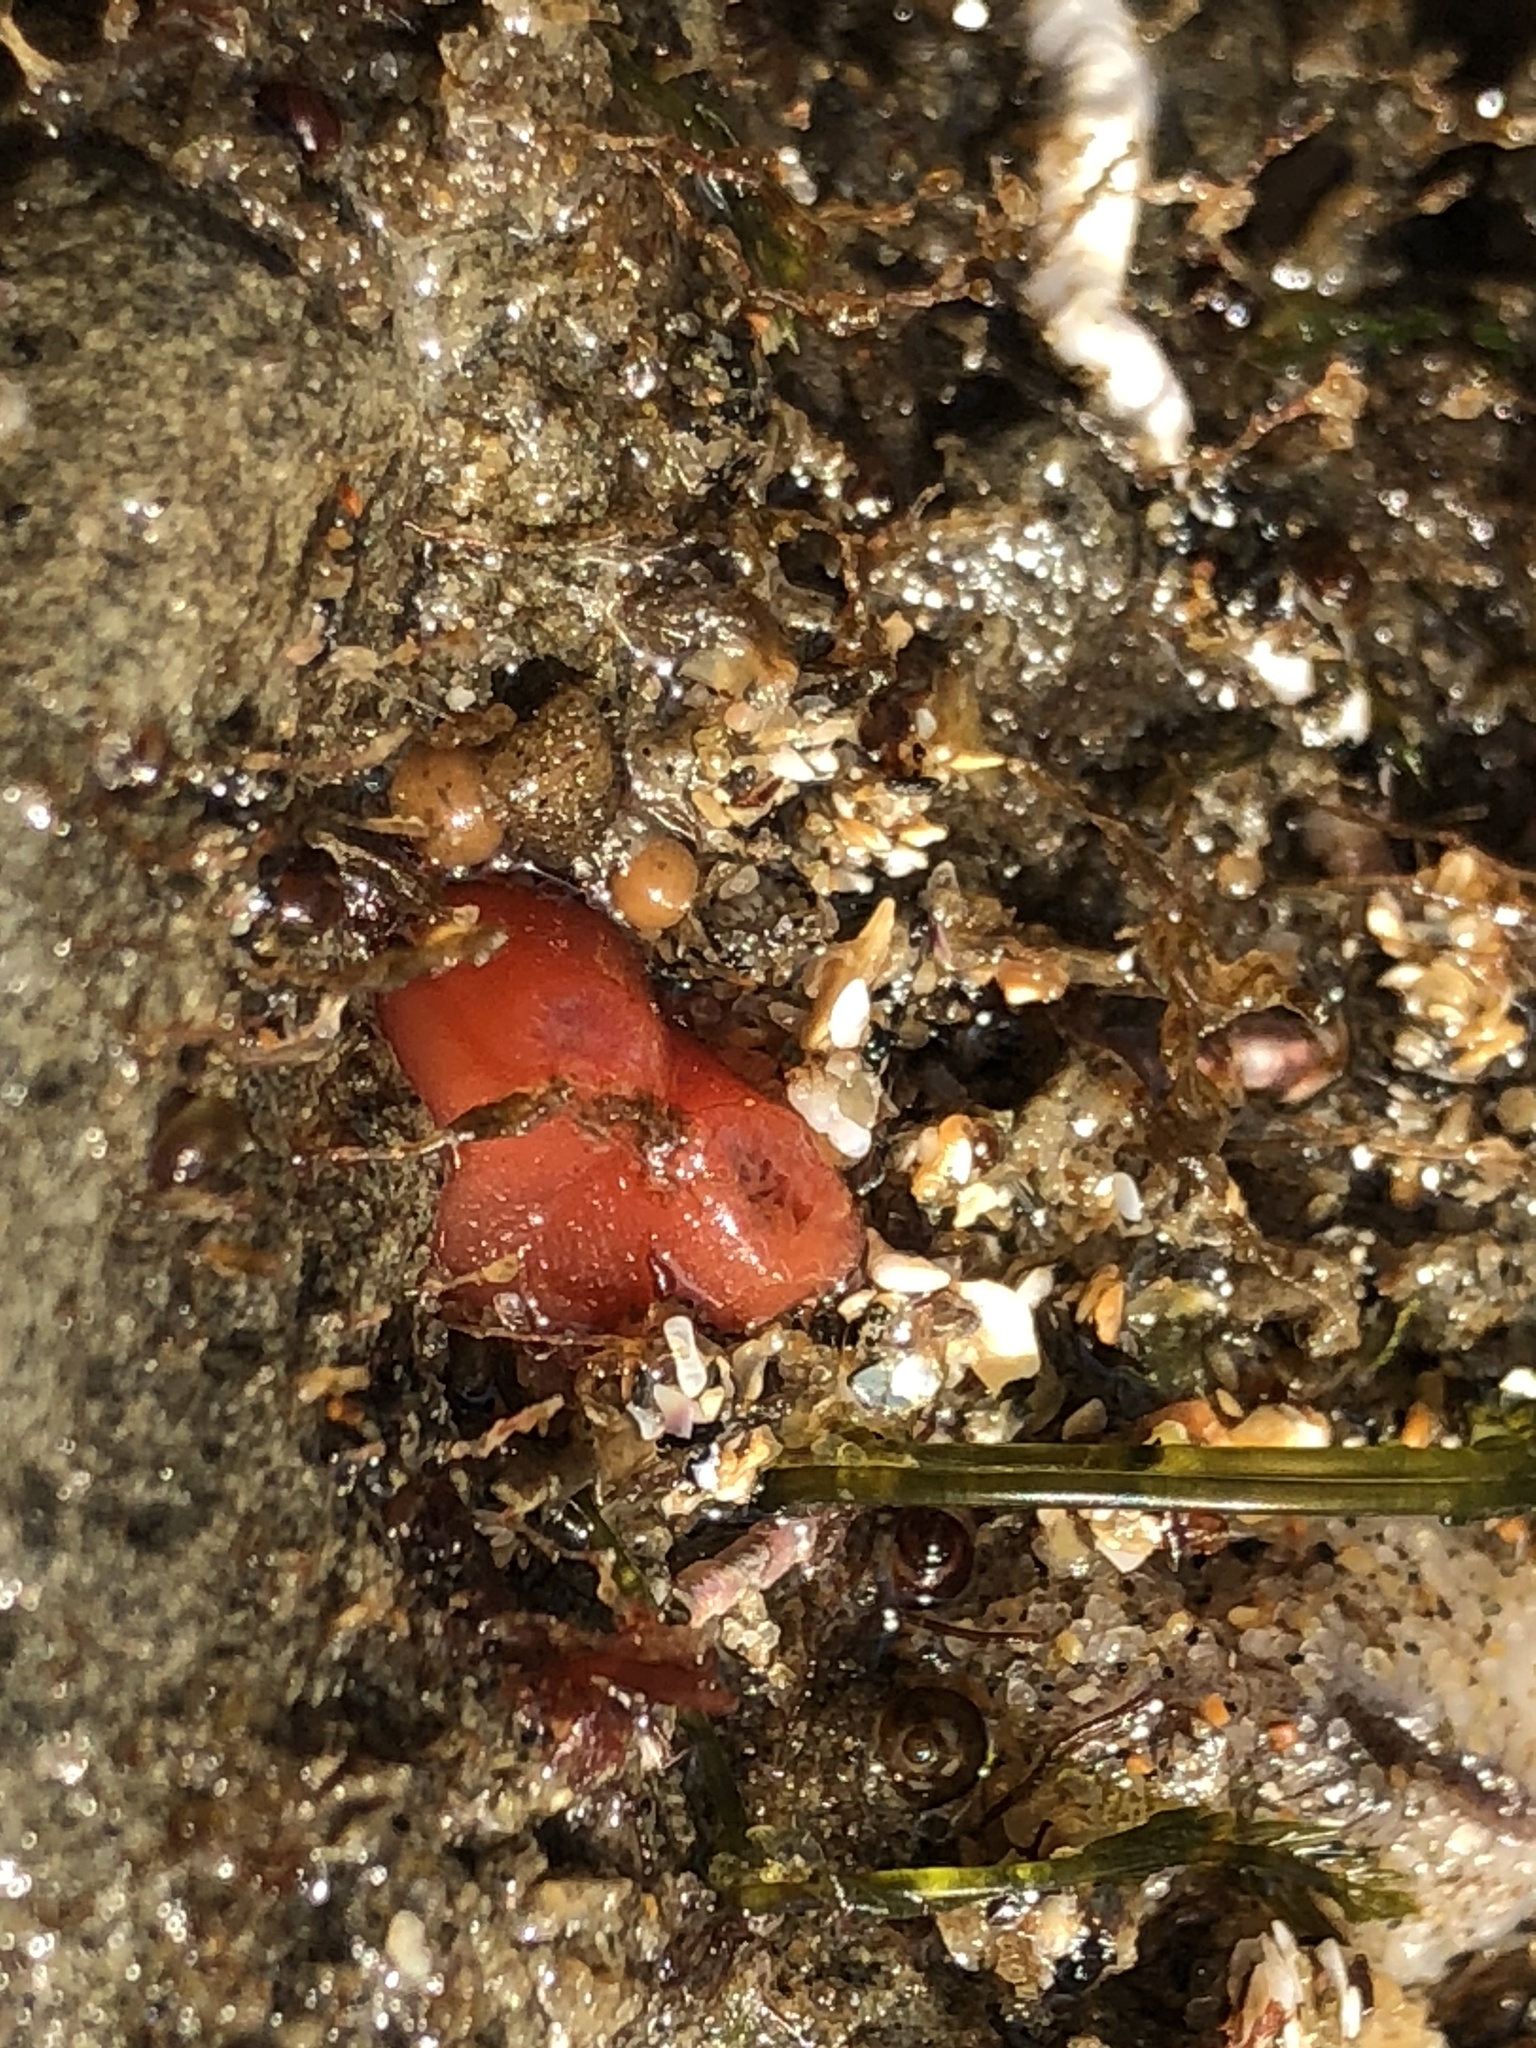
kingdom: Animalia
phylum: Mollusca
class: Bivalvia
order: Adapedonta
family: Hiatellidae
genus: Hiatella
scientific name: Hiatella arctica
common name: Arctic hiatella
